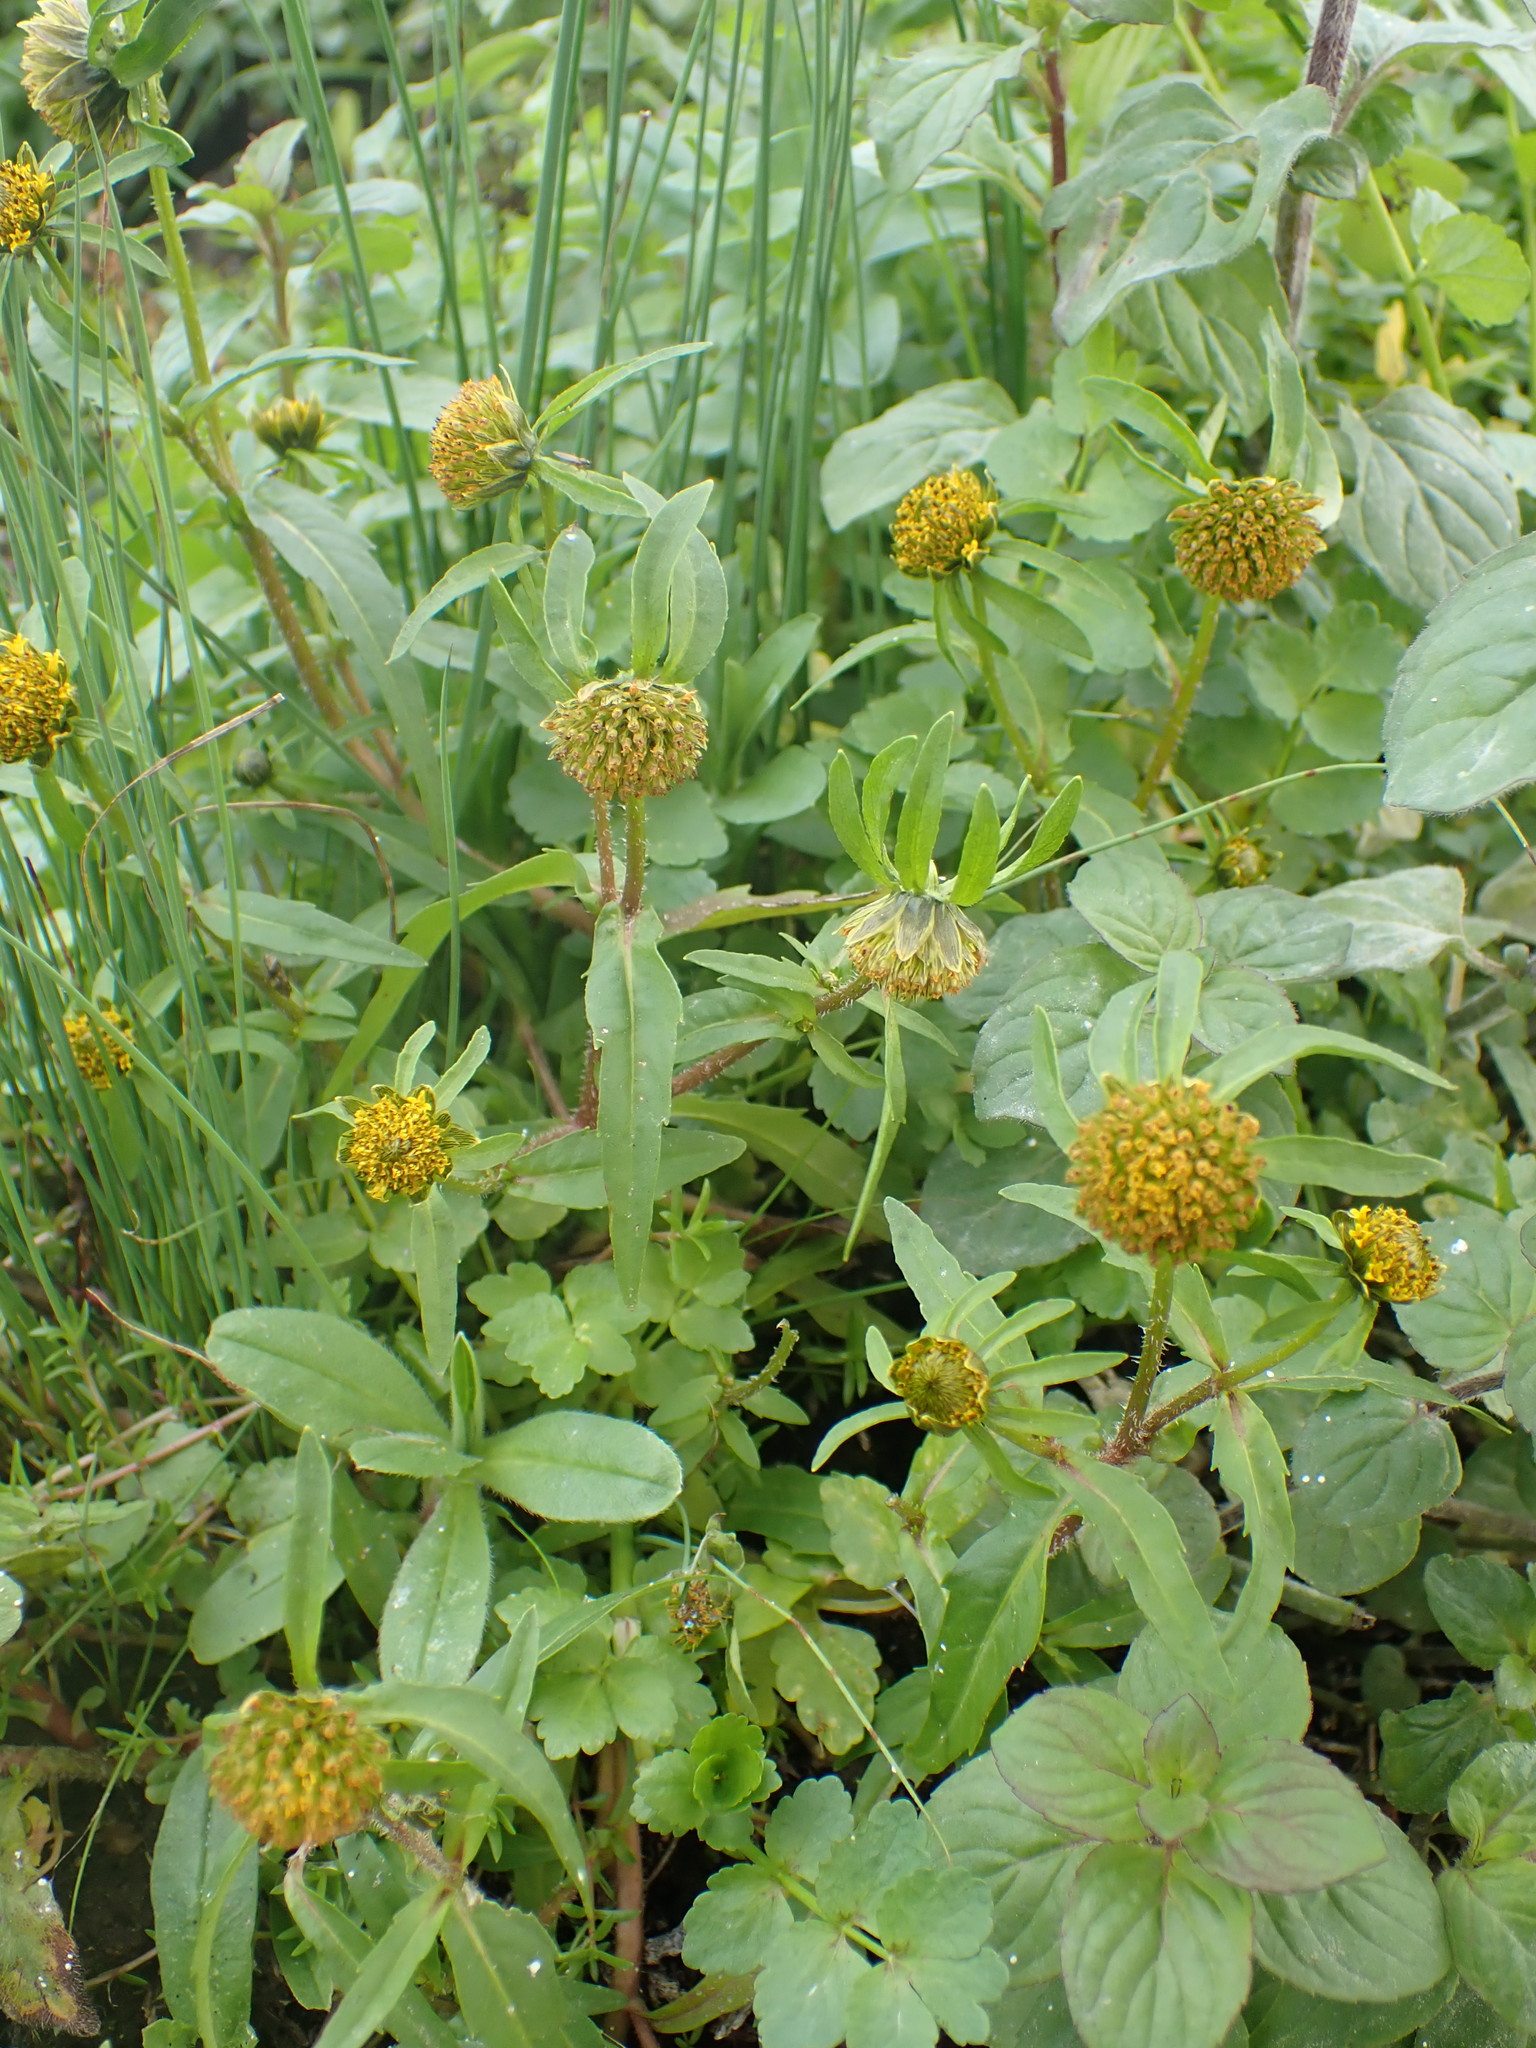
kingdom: Plantae
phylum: Tracheophyta
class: Magnoliopsida
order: Asterales
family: Asteraceae
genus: Bidens
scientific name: Bidens cernua
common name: Nodding bur-marigold
